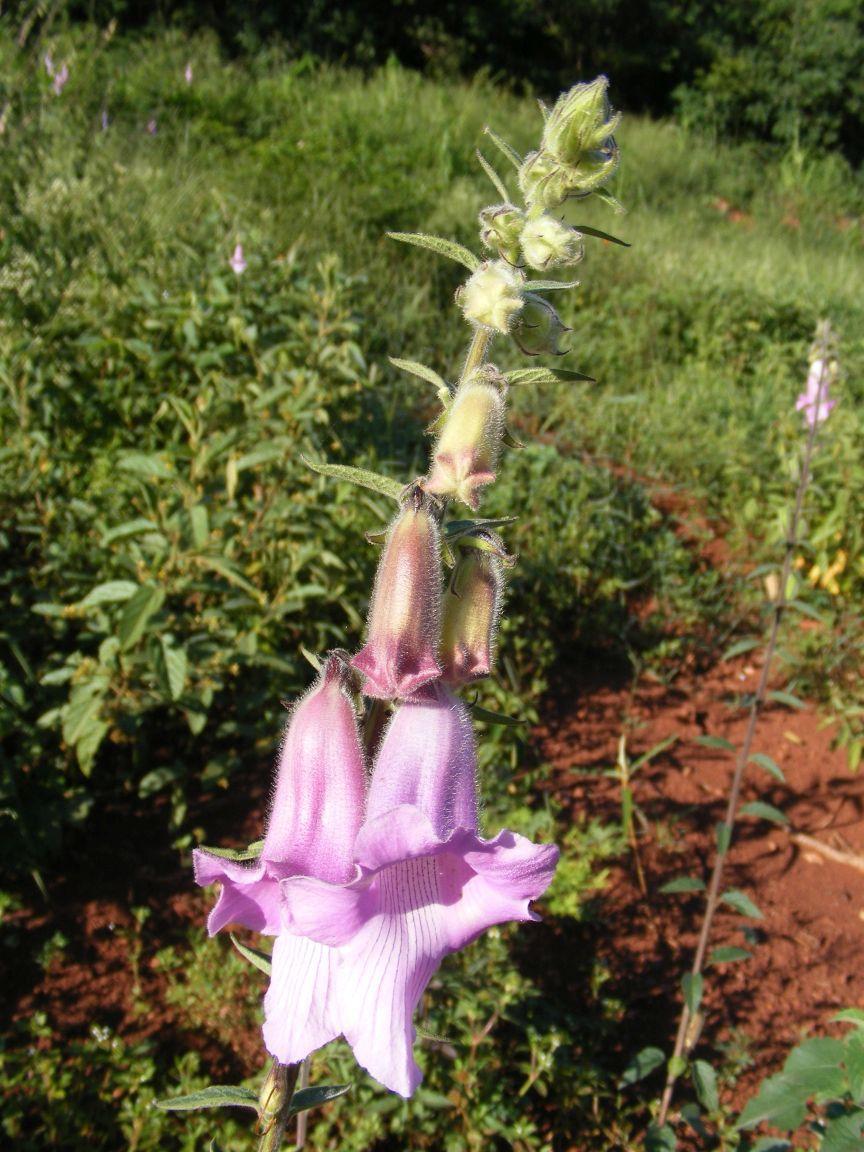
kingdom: Plantae
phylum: Tracheophyta
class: Magnoliopsida
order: Lamiales
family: Pedaliaceae
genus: Sesamum
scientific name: Sesamum trilobum
